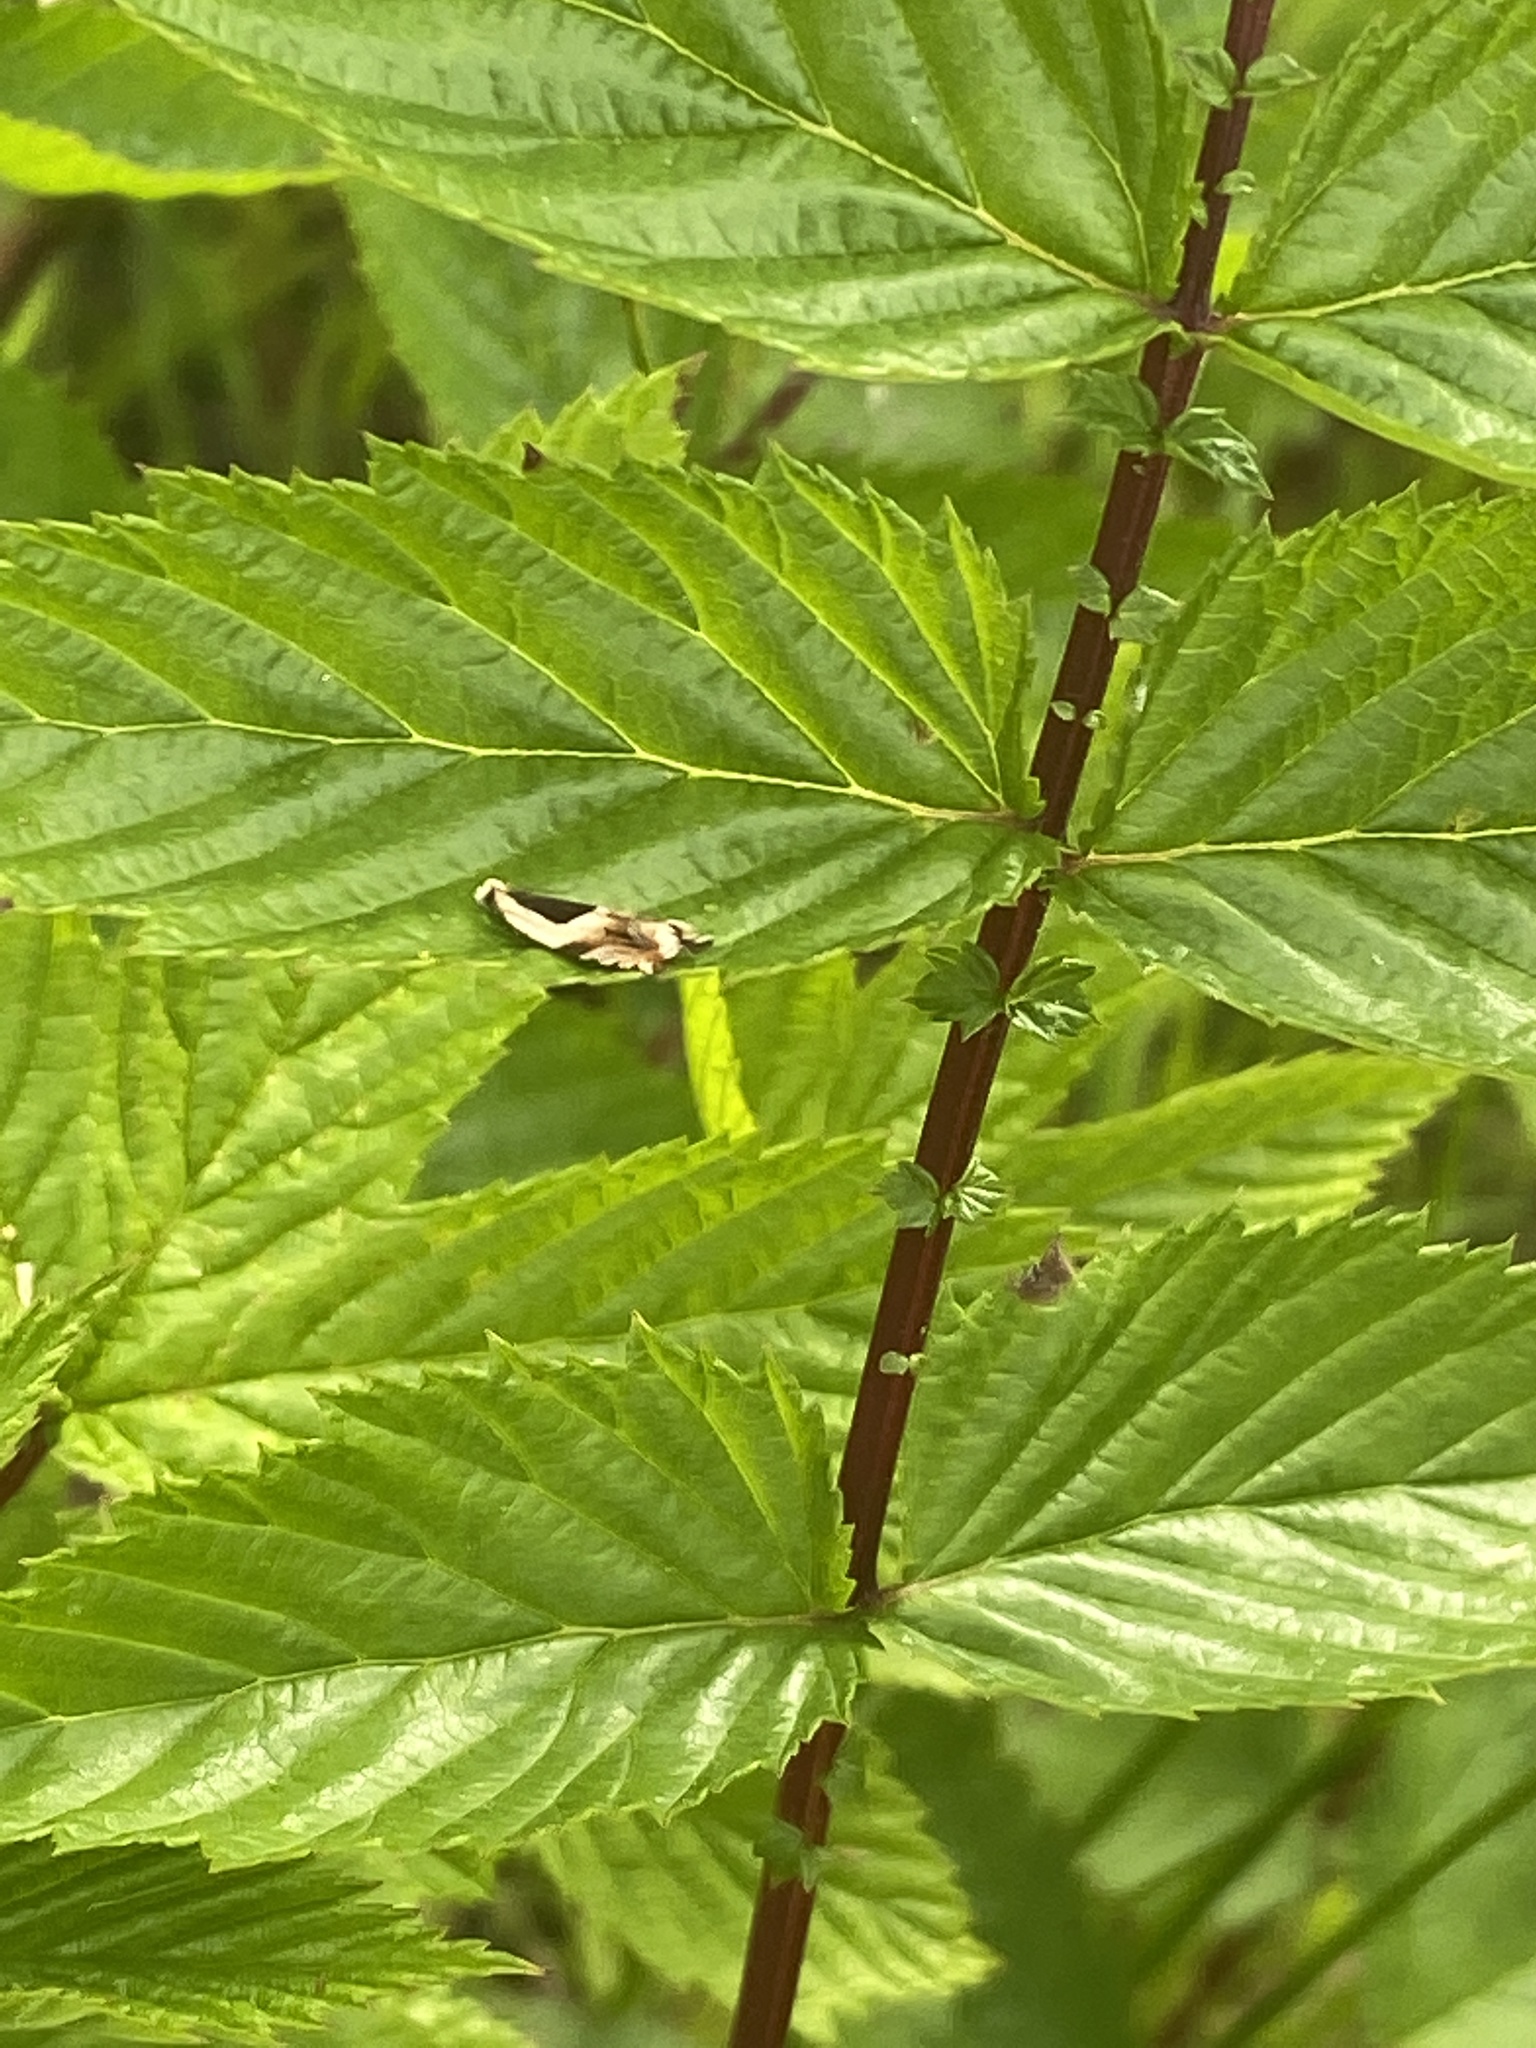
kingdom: Animalia
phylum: Arthropoda
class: Insecta
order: Lepidoptera
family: Tortricidae
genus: Ancylis
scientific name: Ancylis badiana
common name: Common roller
